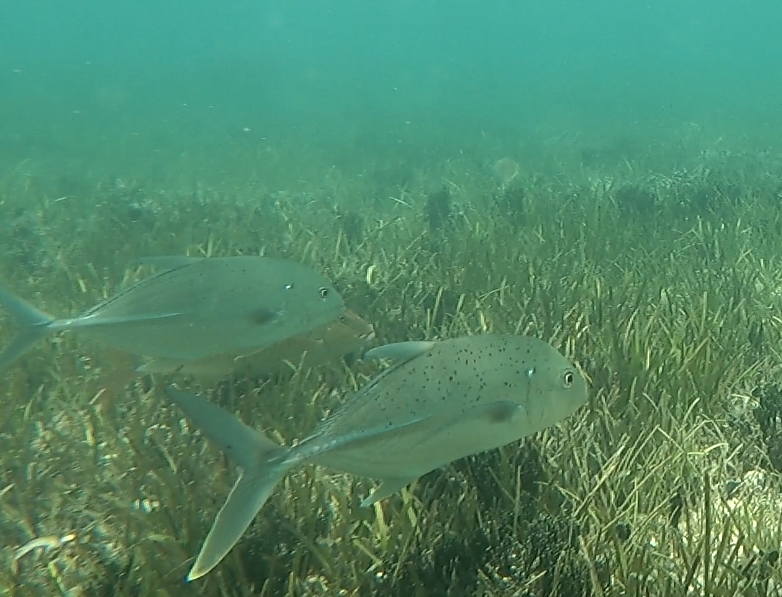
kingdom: Animalia
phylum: Chordata
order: Perciformes
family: Carangidae
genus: Caranx
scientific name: Caranx papuensis
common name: Brassy trevally
